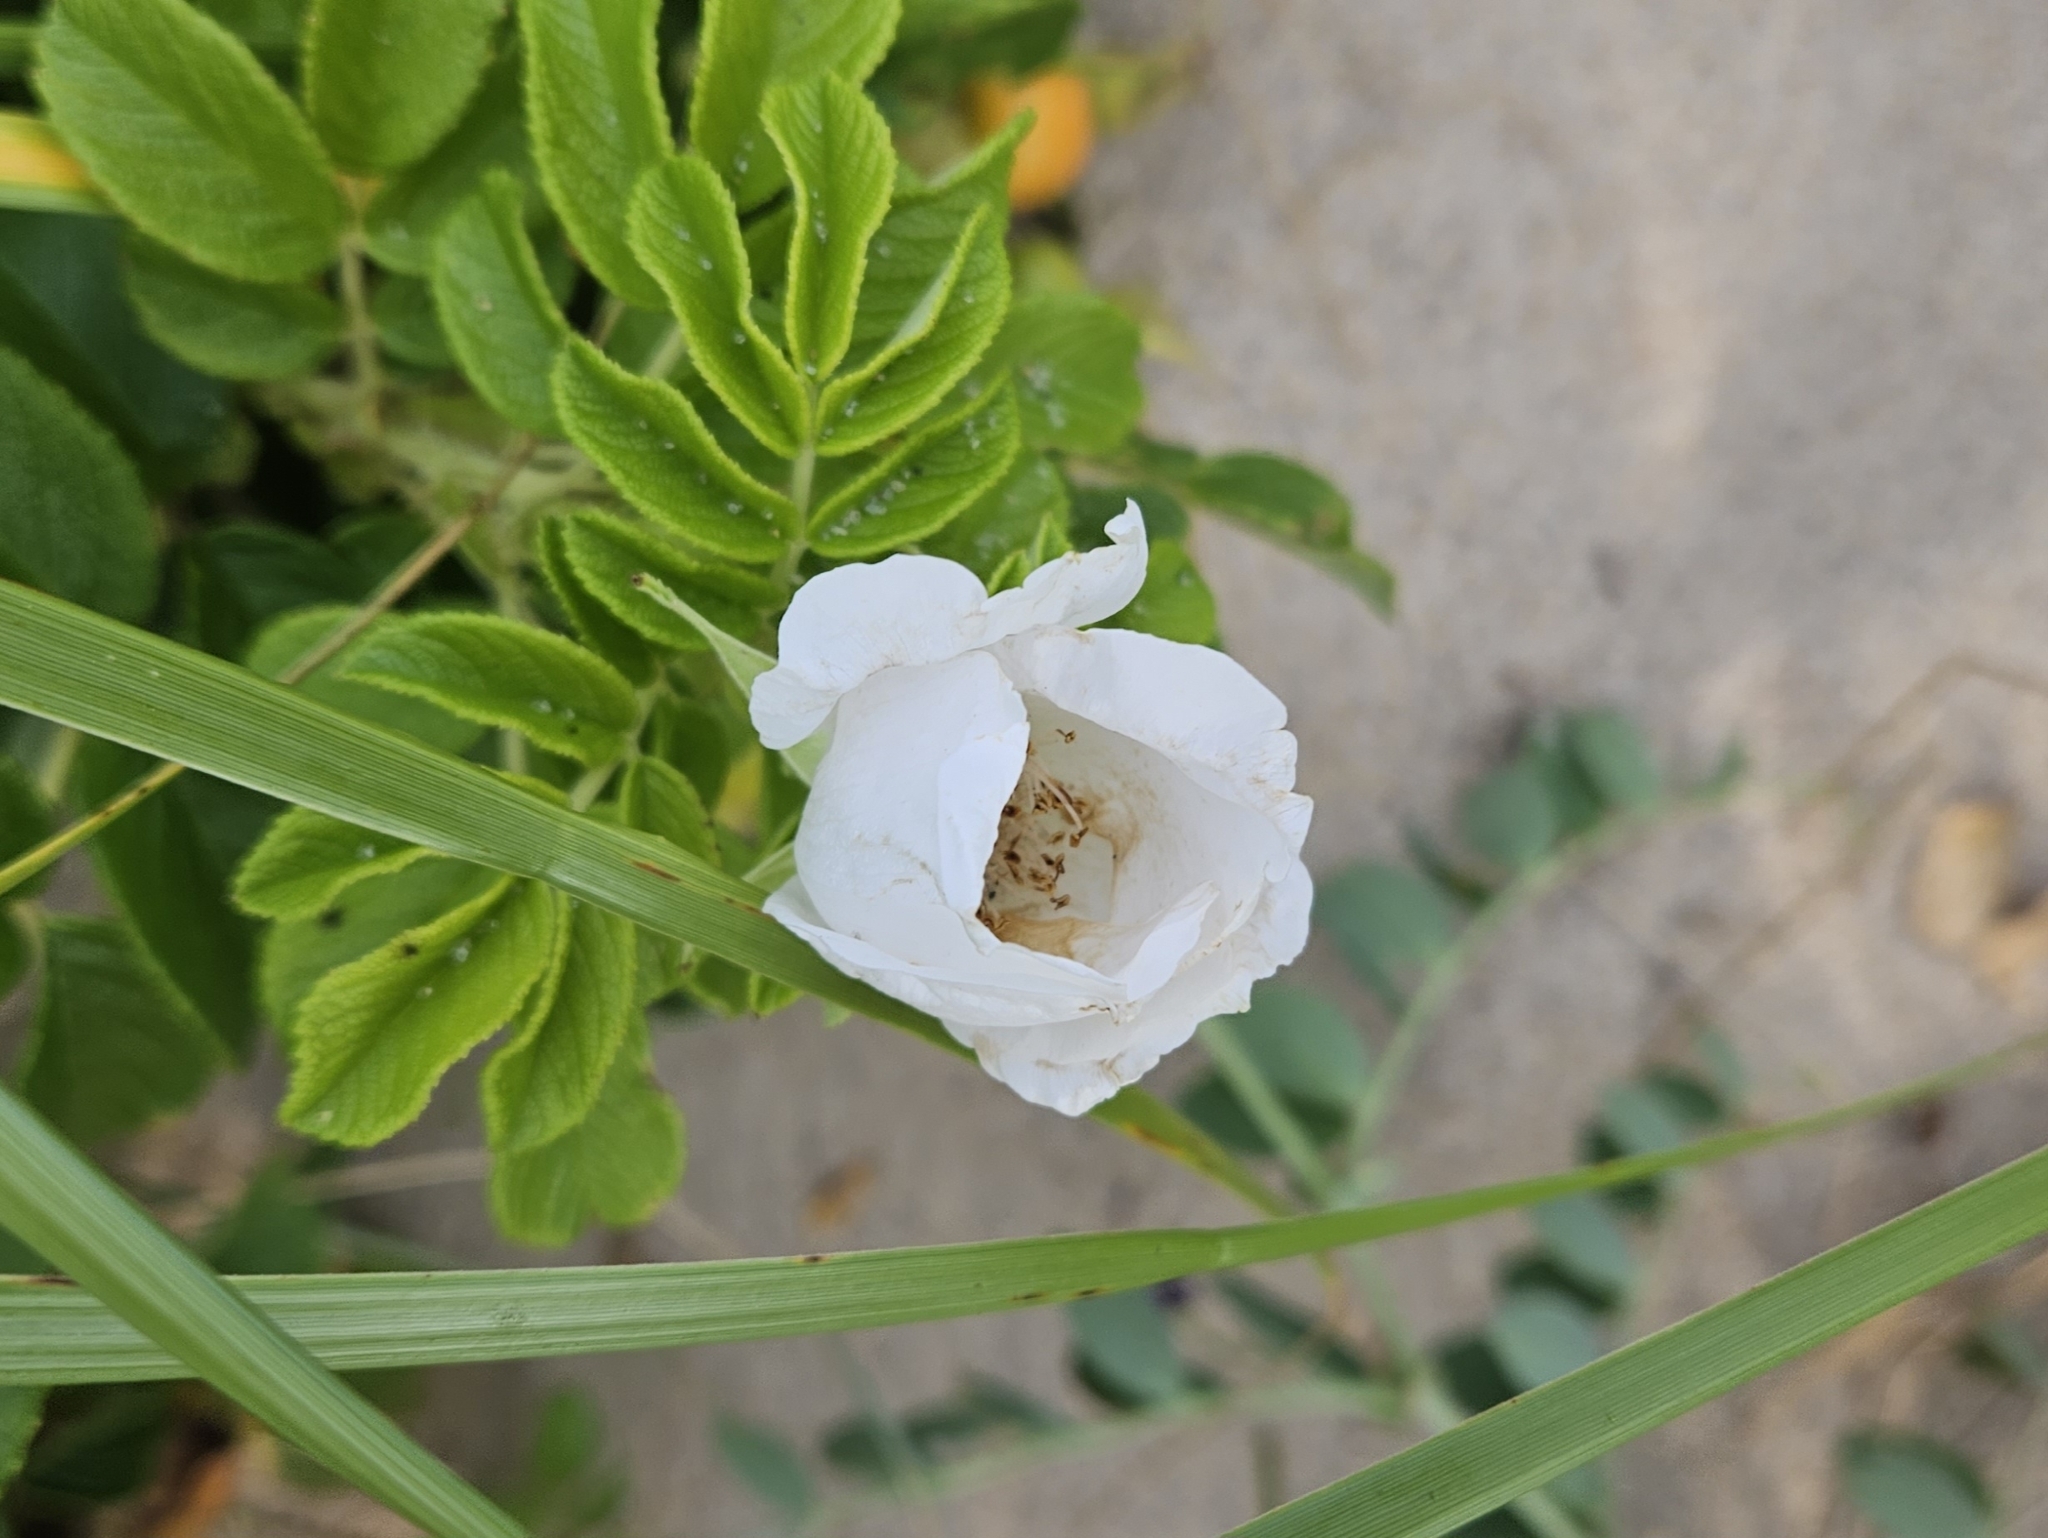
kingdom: Plantae
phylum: Tracheophyta
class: Magnoliopsida
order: Rosales
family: Rosaceae
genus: Rosa
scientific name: Rosa rugosa
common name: Japanese rose
